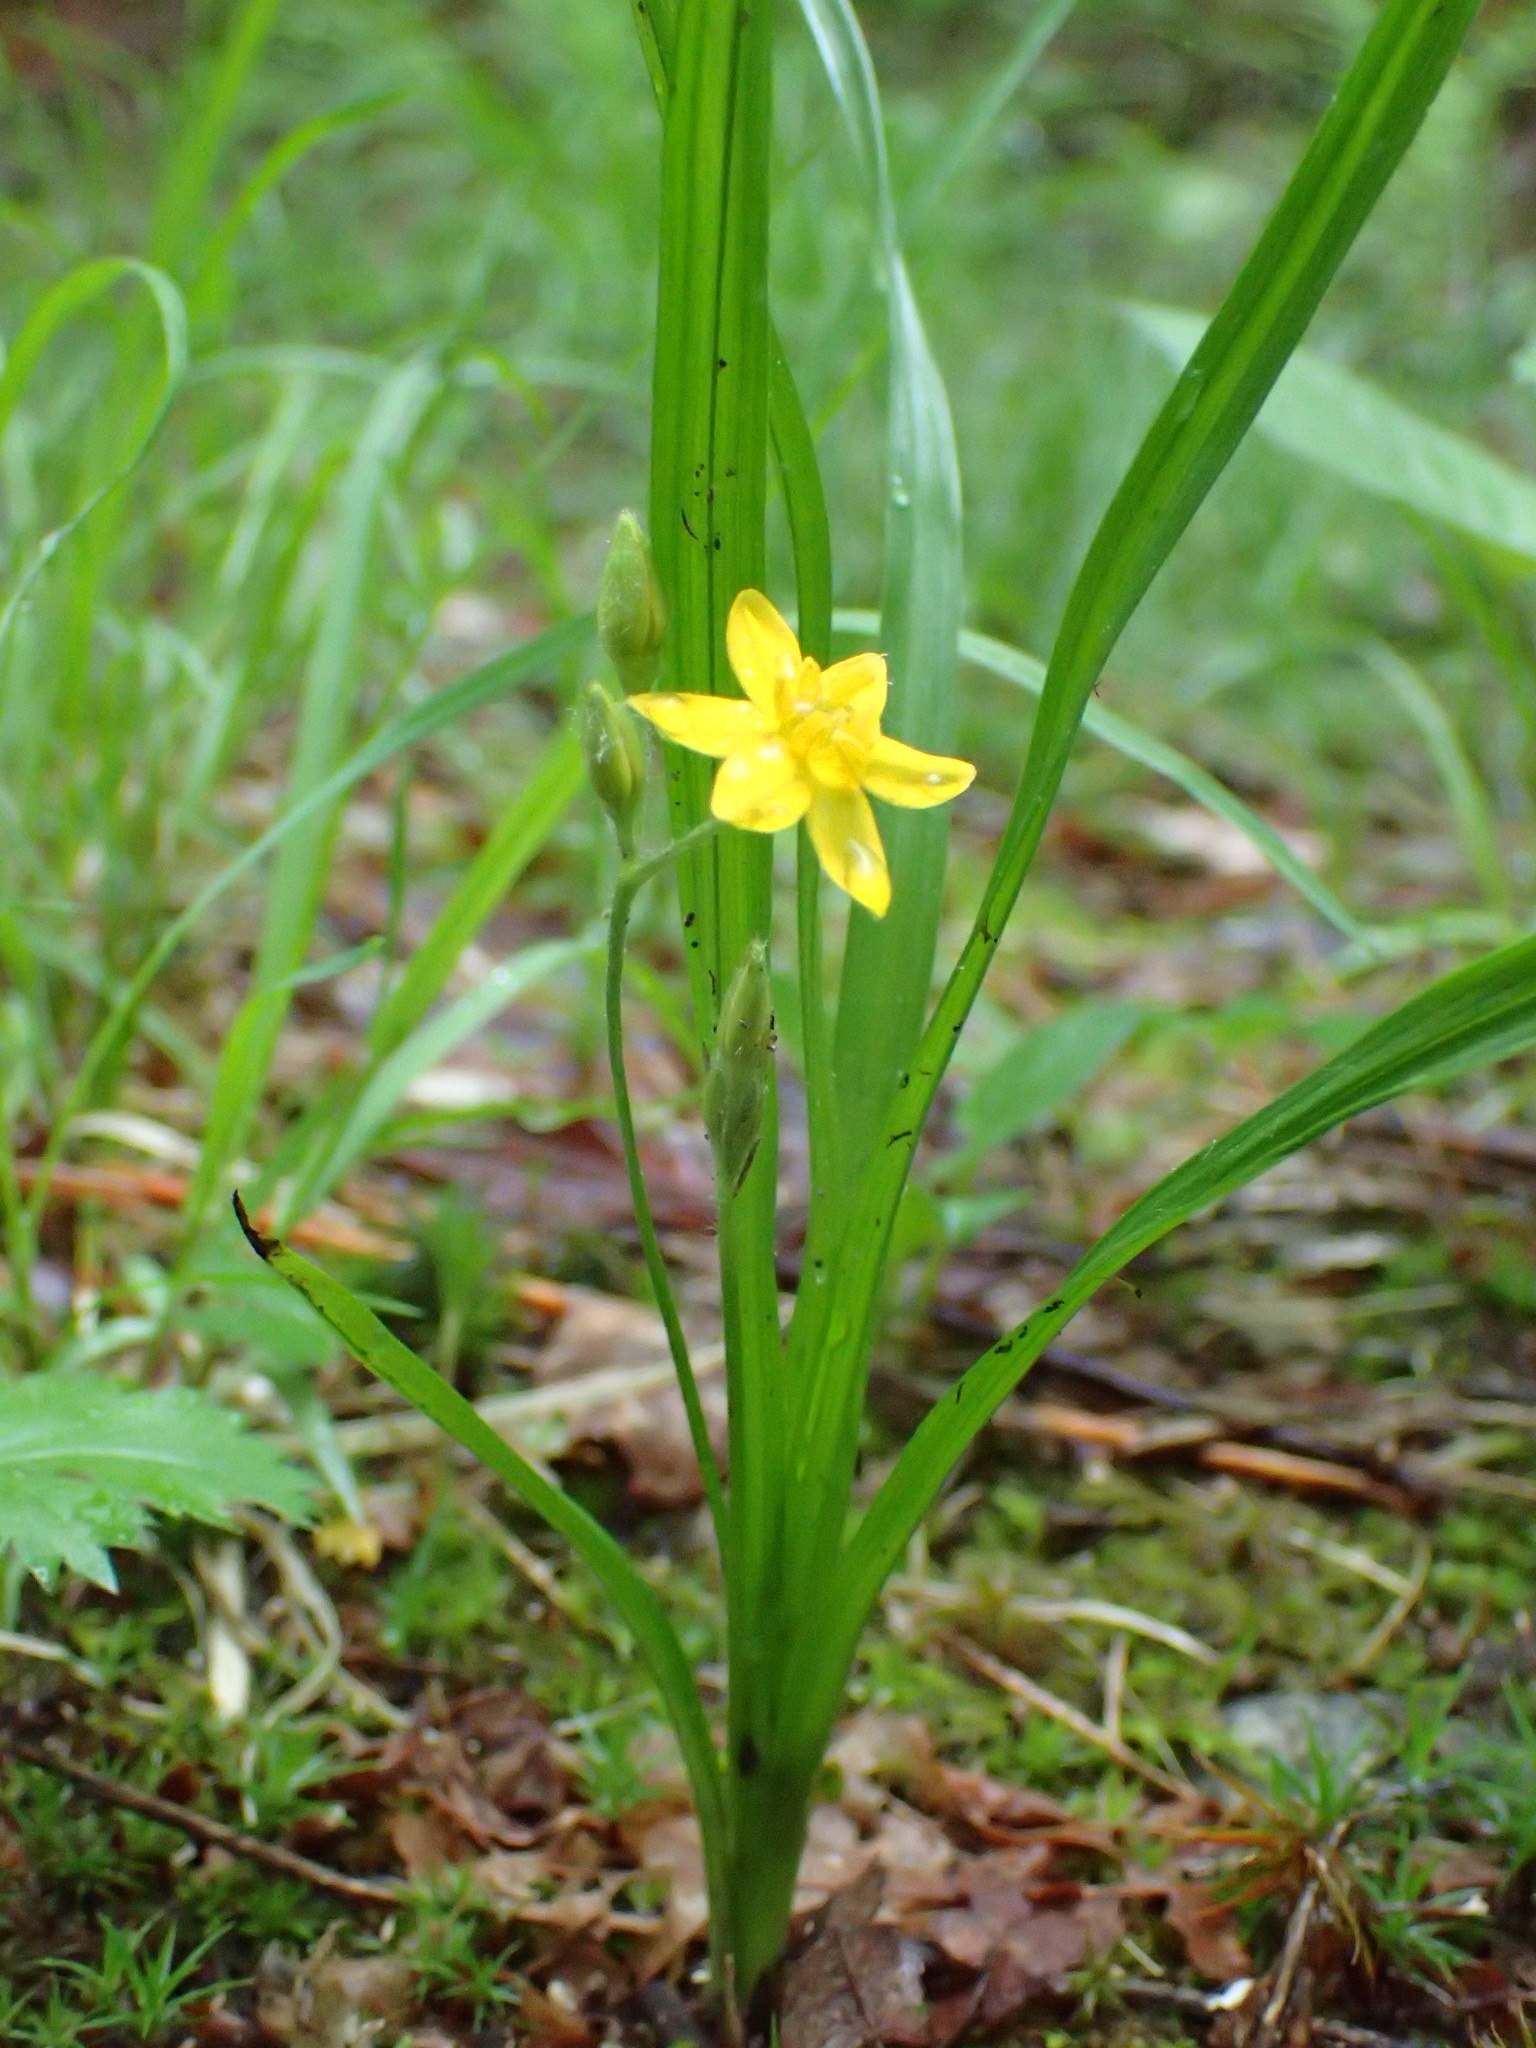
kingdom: Plantae
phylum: Tracheophyta
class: Liliopsida
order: Asparagales
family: Hypoxidaceae
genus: Hypoxis
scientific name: Hypoxis hirsuta
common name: Common goldstar
